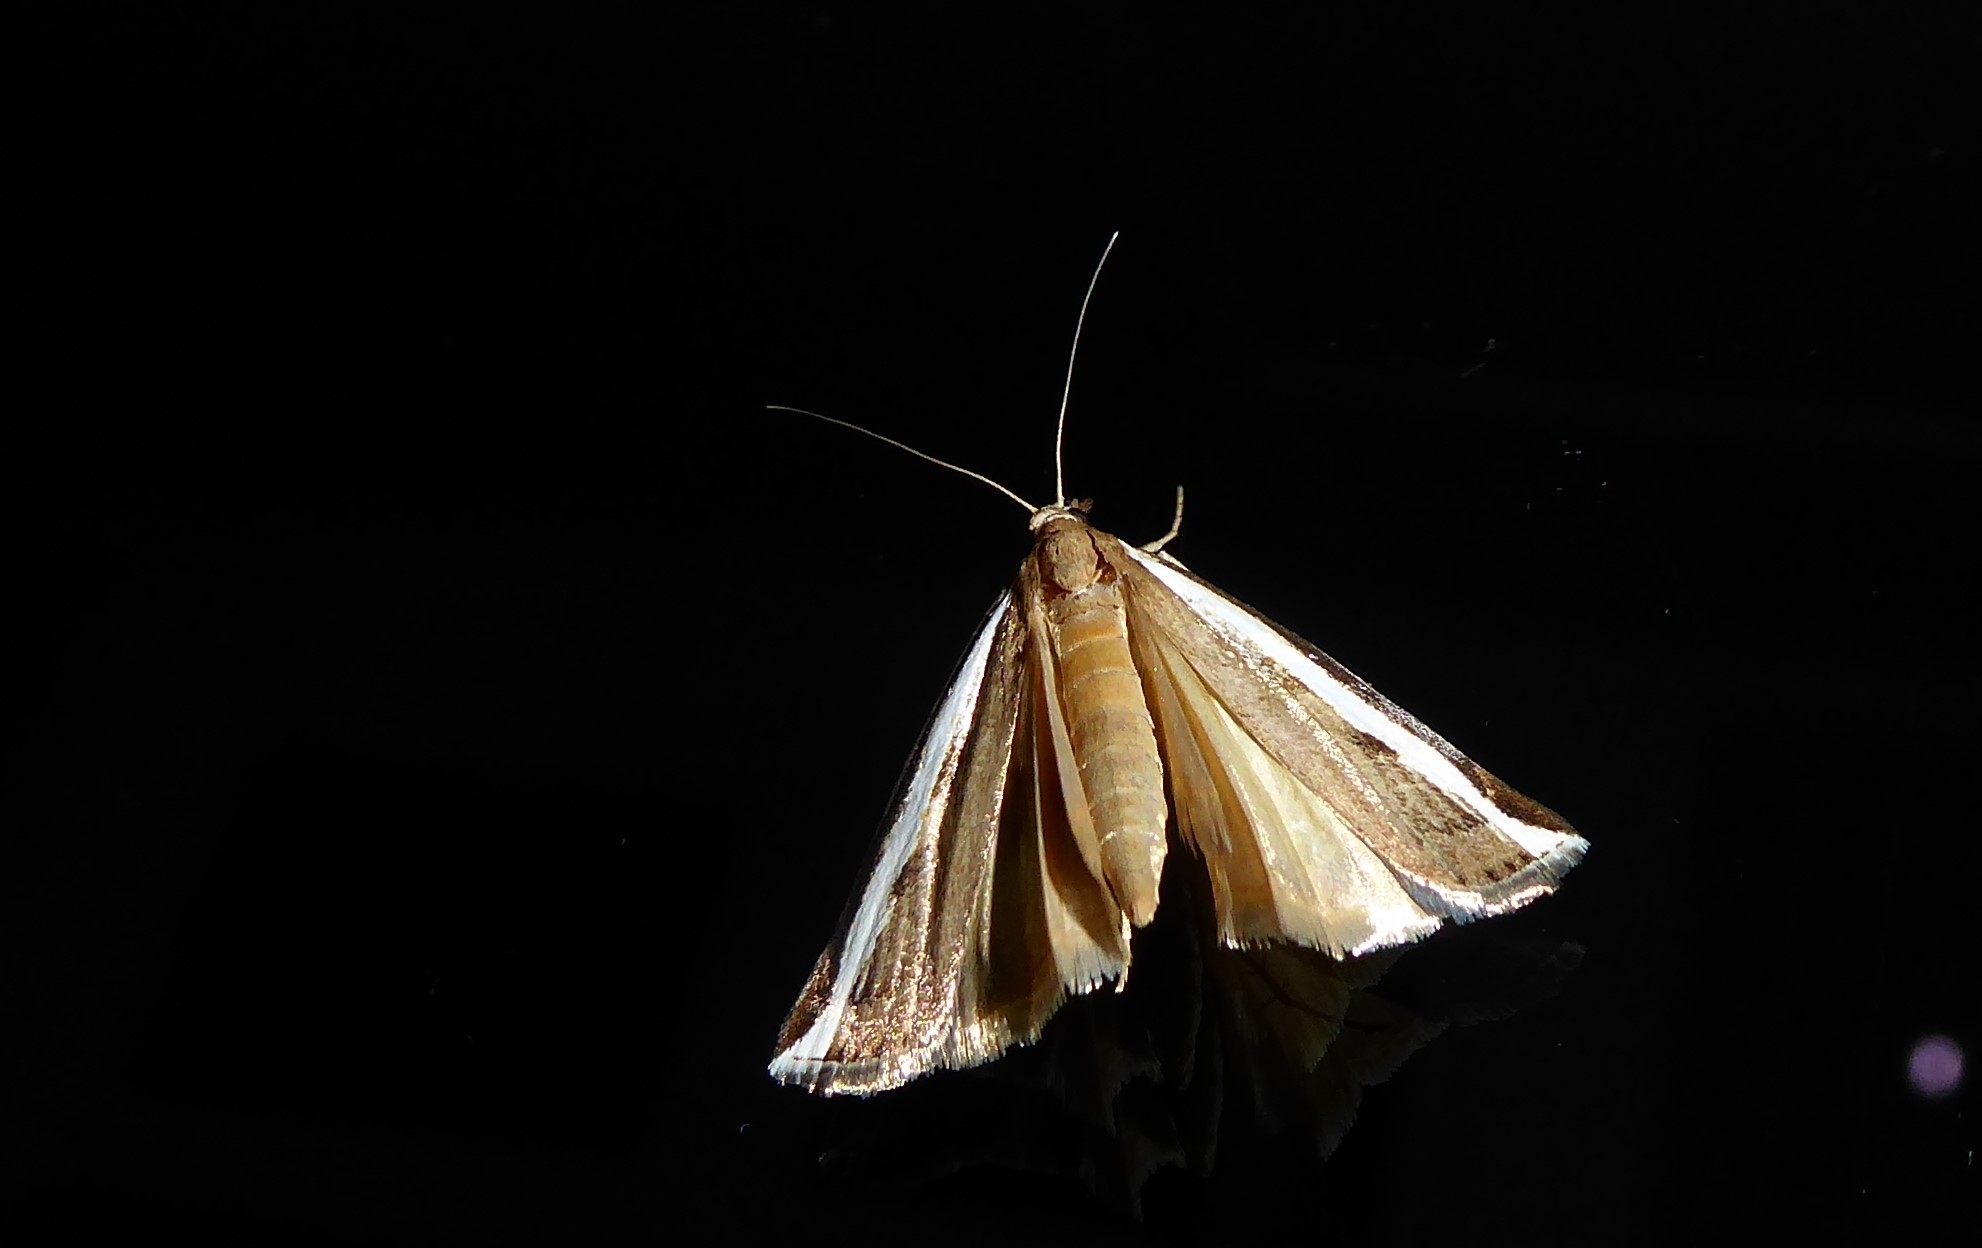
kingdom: Animalia
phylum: Arthropoda
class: Insecta
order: Lepidoptera
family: Crambidae
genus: Orocrambus
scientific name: Orocrambus flexuosellus
